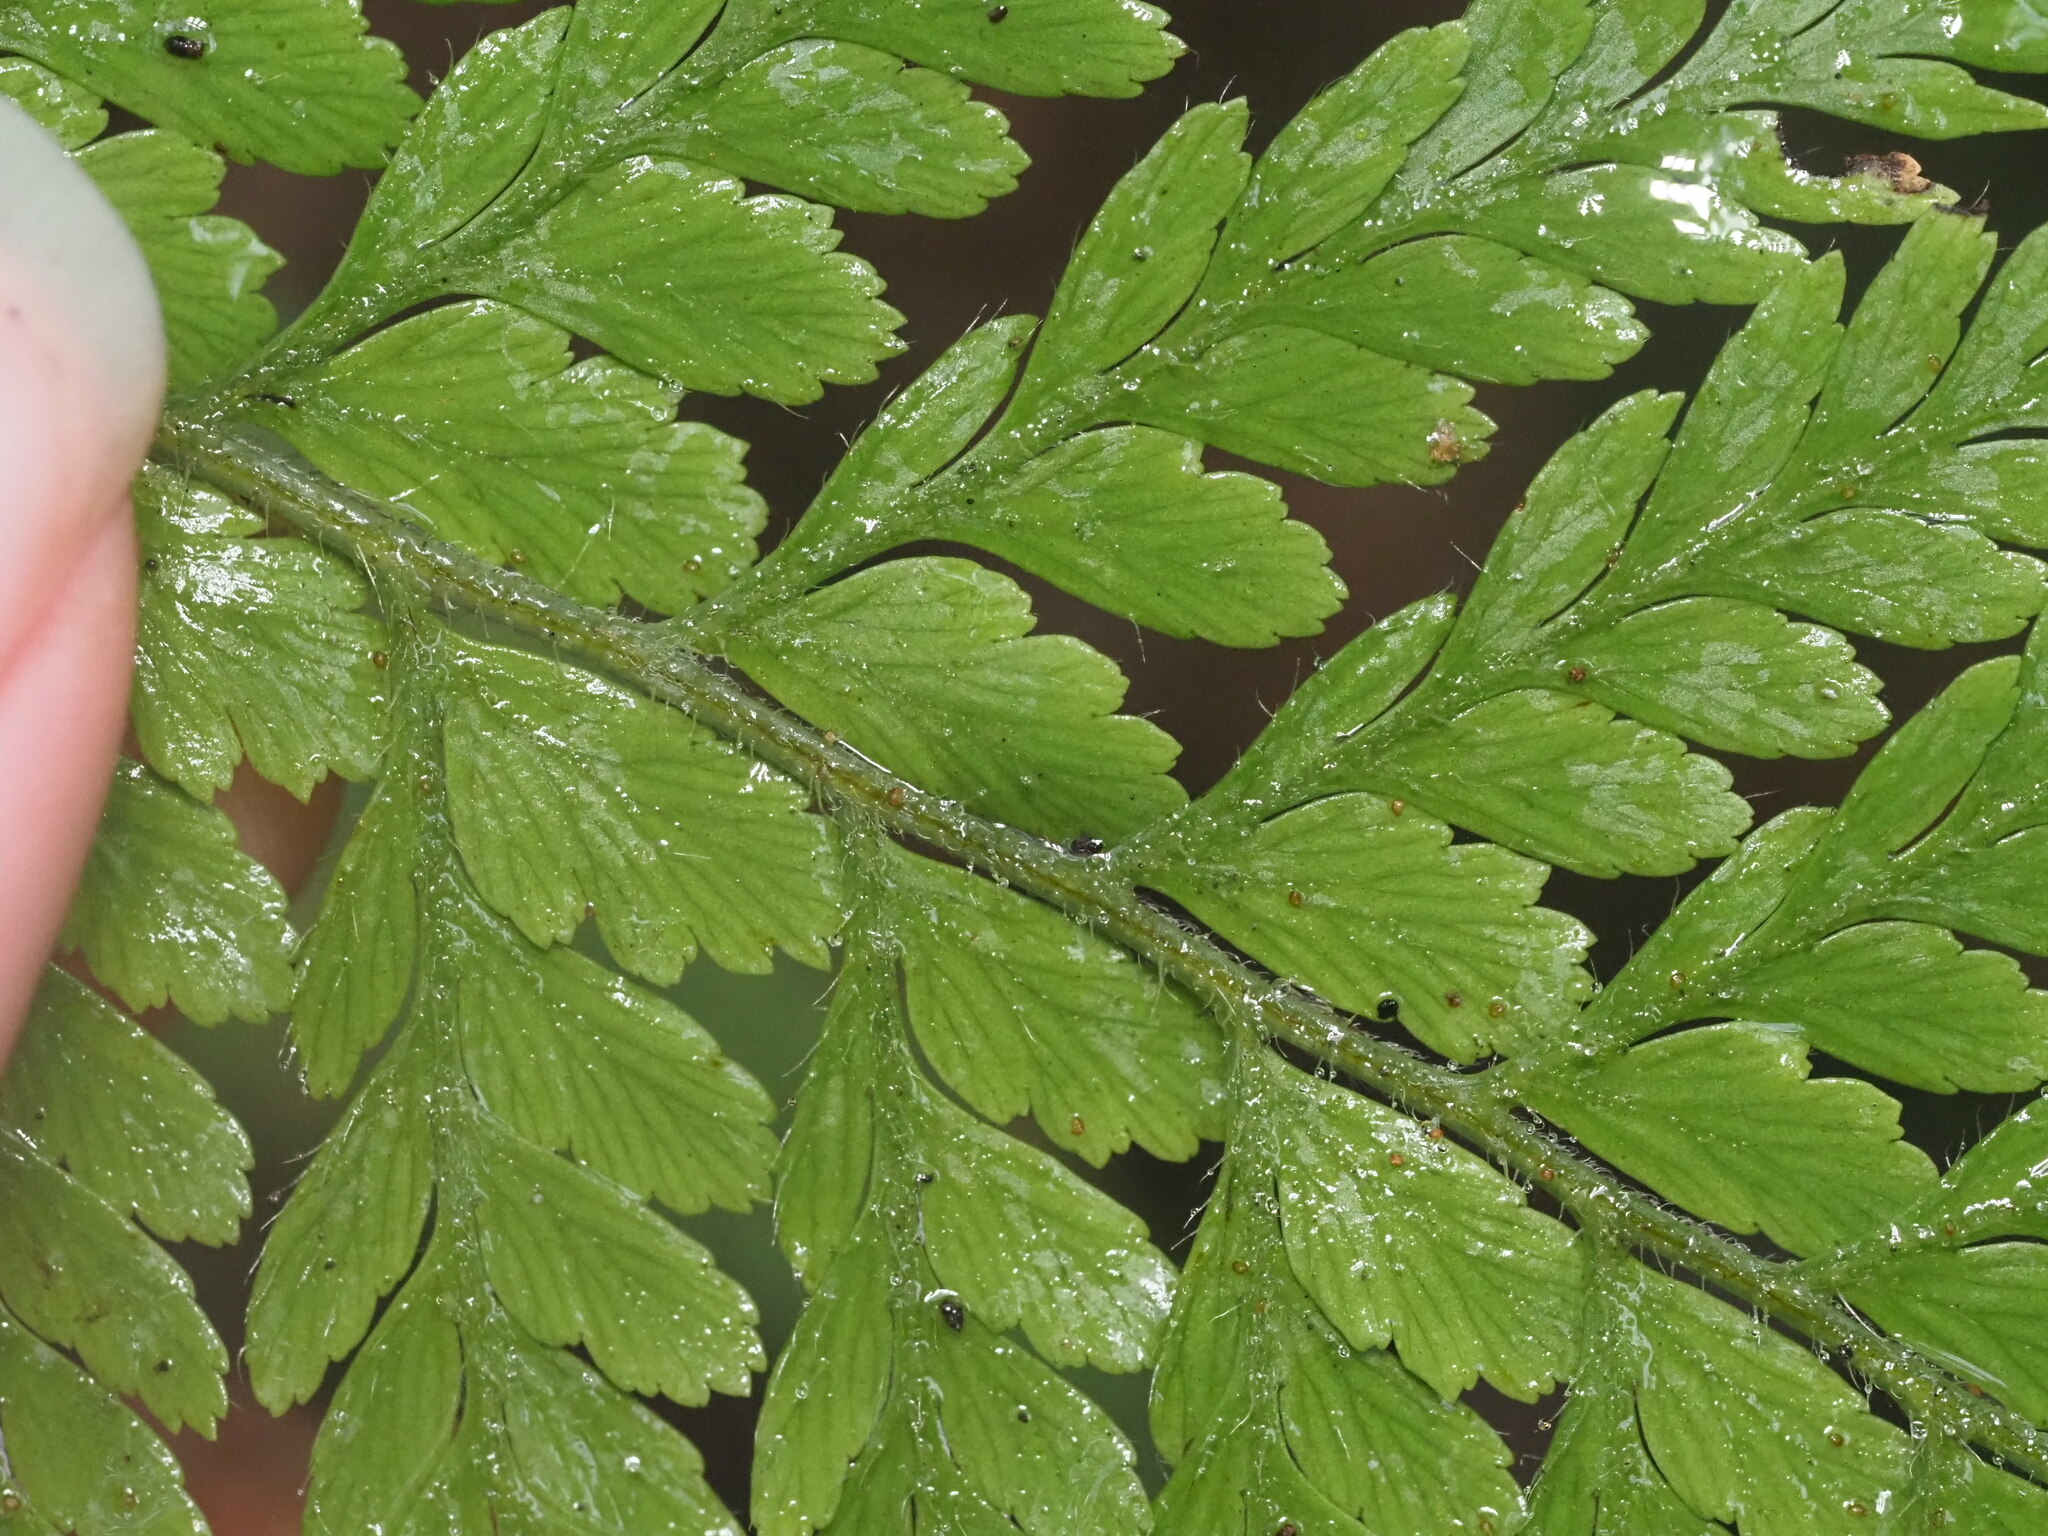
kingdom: Plantae
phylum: Tracheophyta
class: Polypodiopsida
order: Polypodiales
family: Dennstaedtiaceae
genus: Microlepia
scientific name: Microlepia setosa
